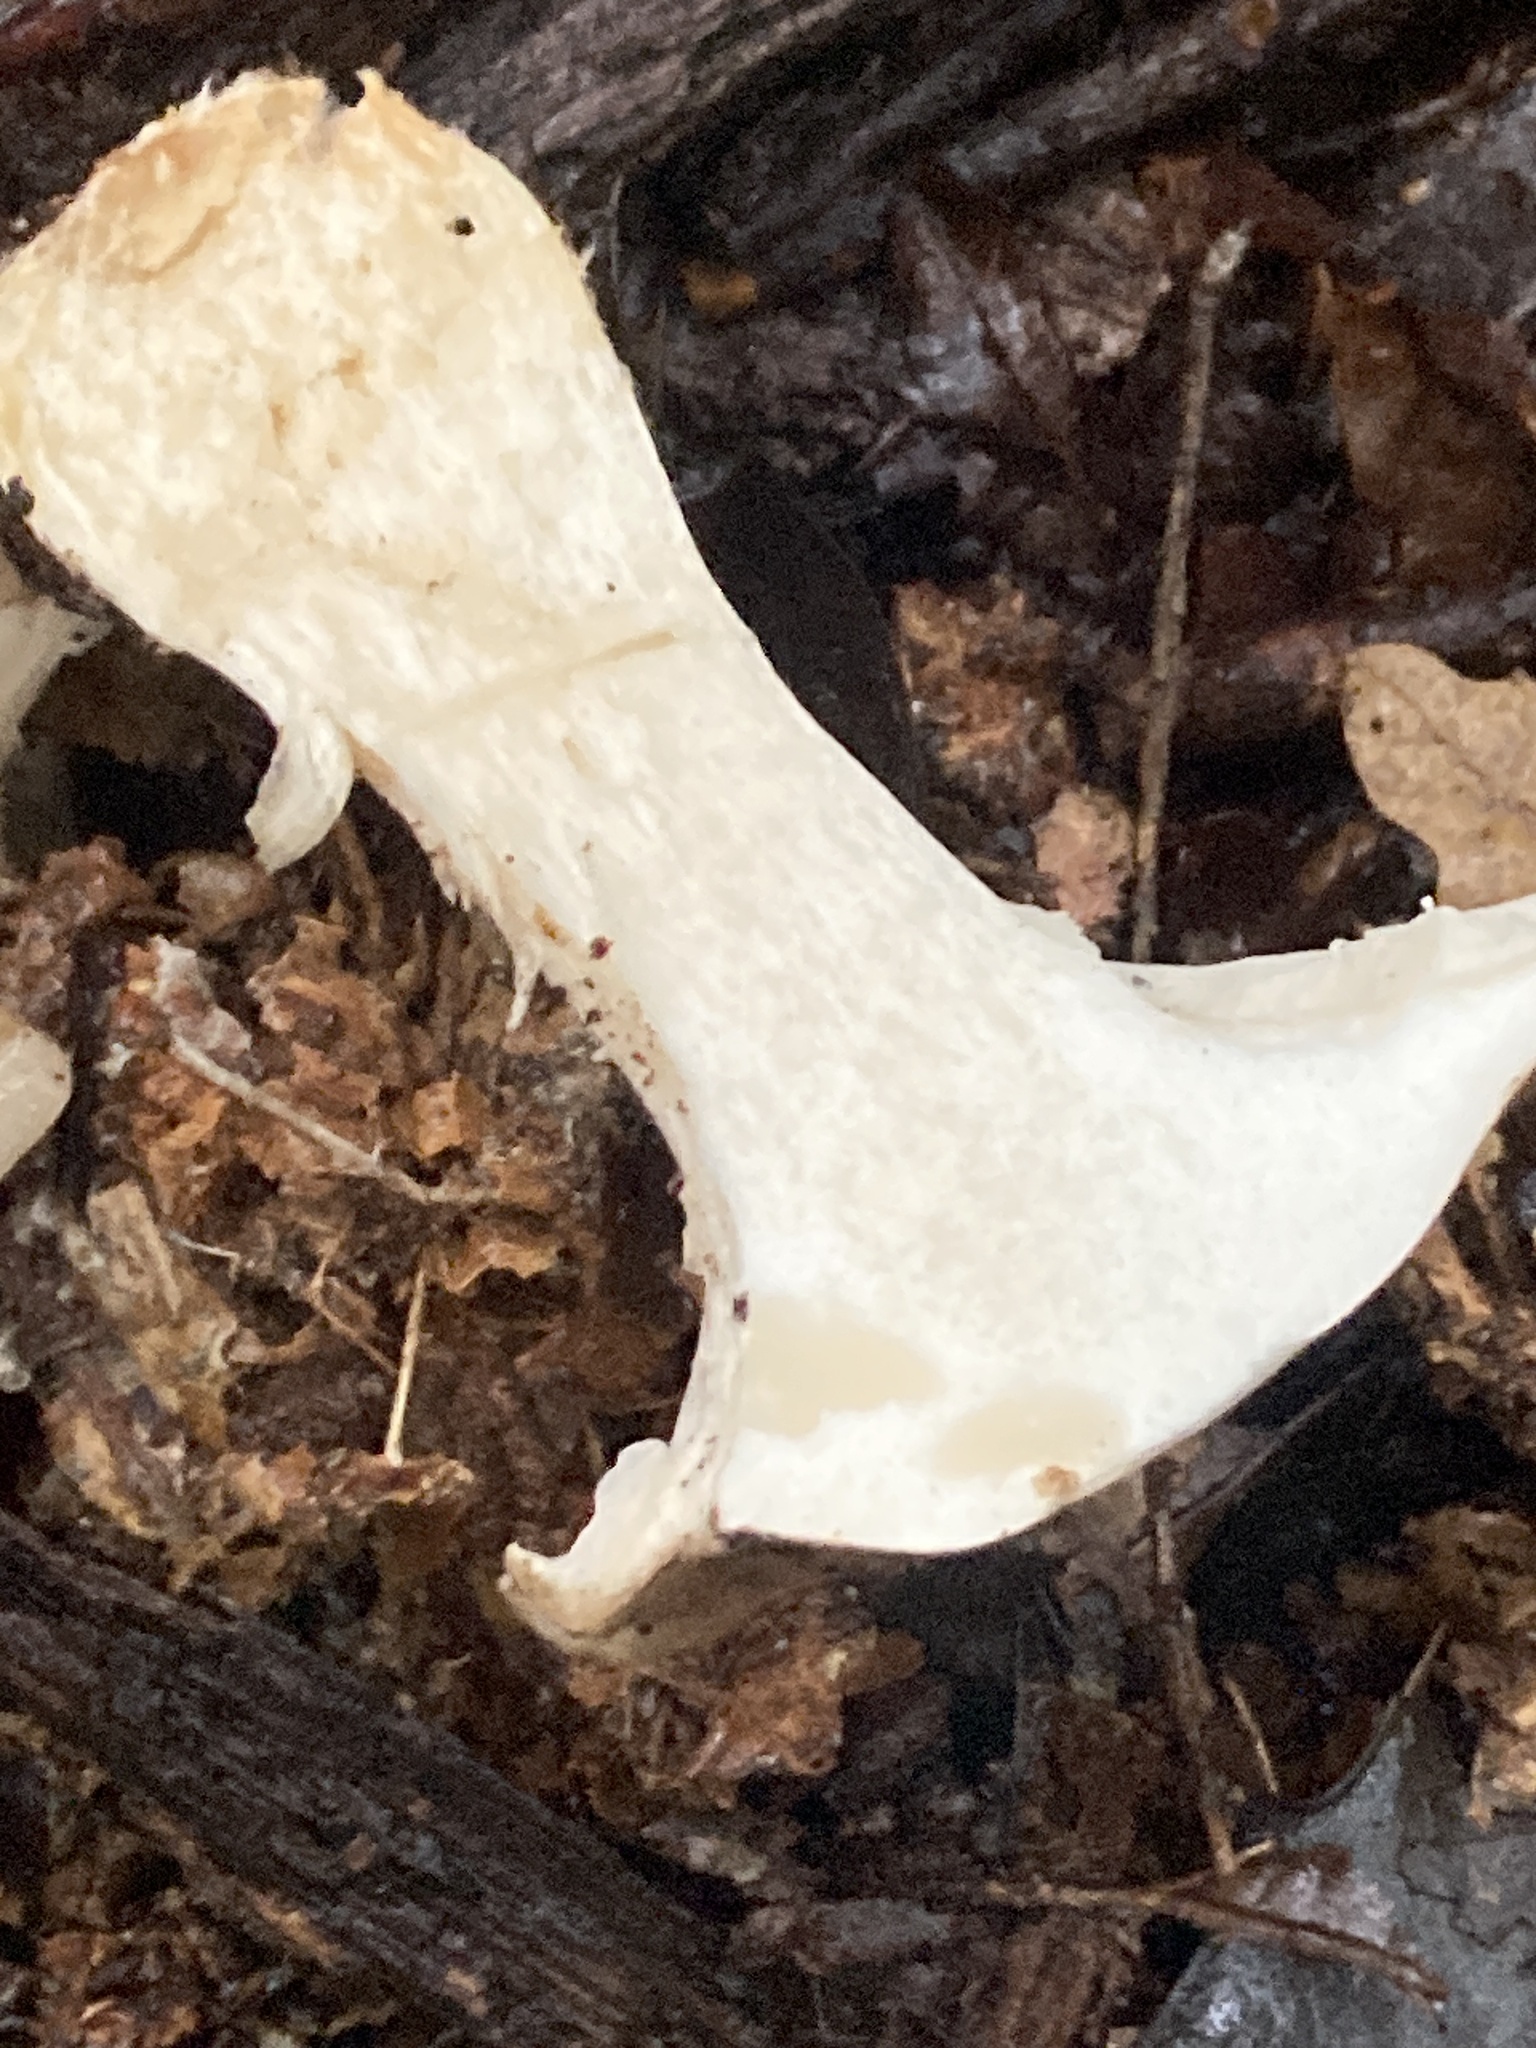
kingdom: Fungi
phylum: Basidiomycota
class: Agaricomycetes
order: Agaricales
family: Tricholomataceae
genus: Clitocybe
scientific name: Clitocybe nebularis
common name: Clouded agaric
